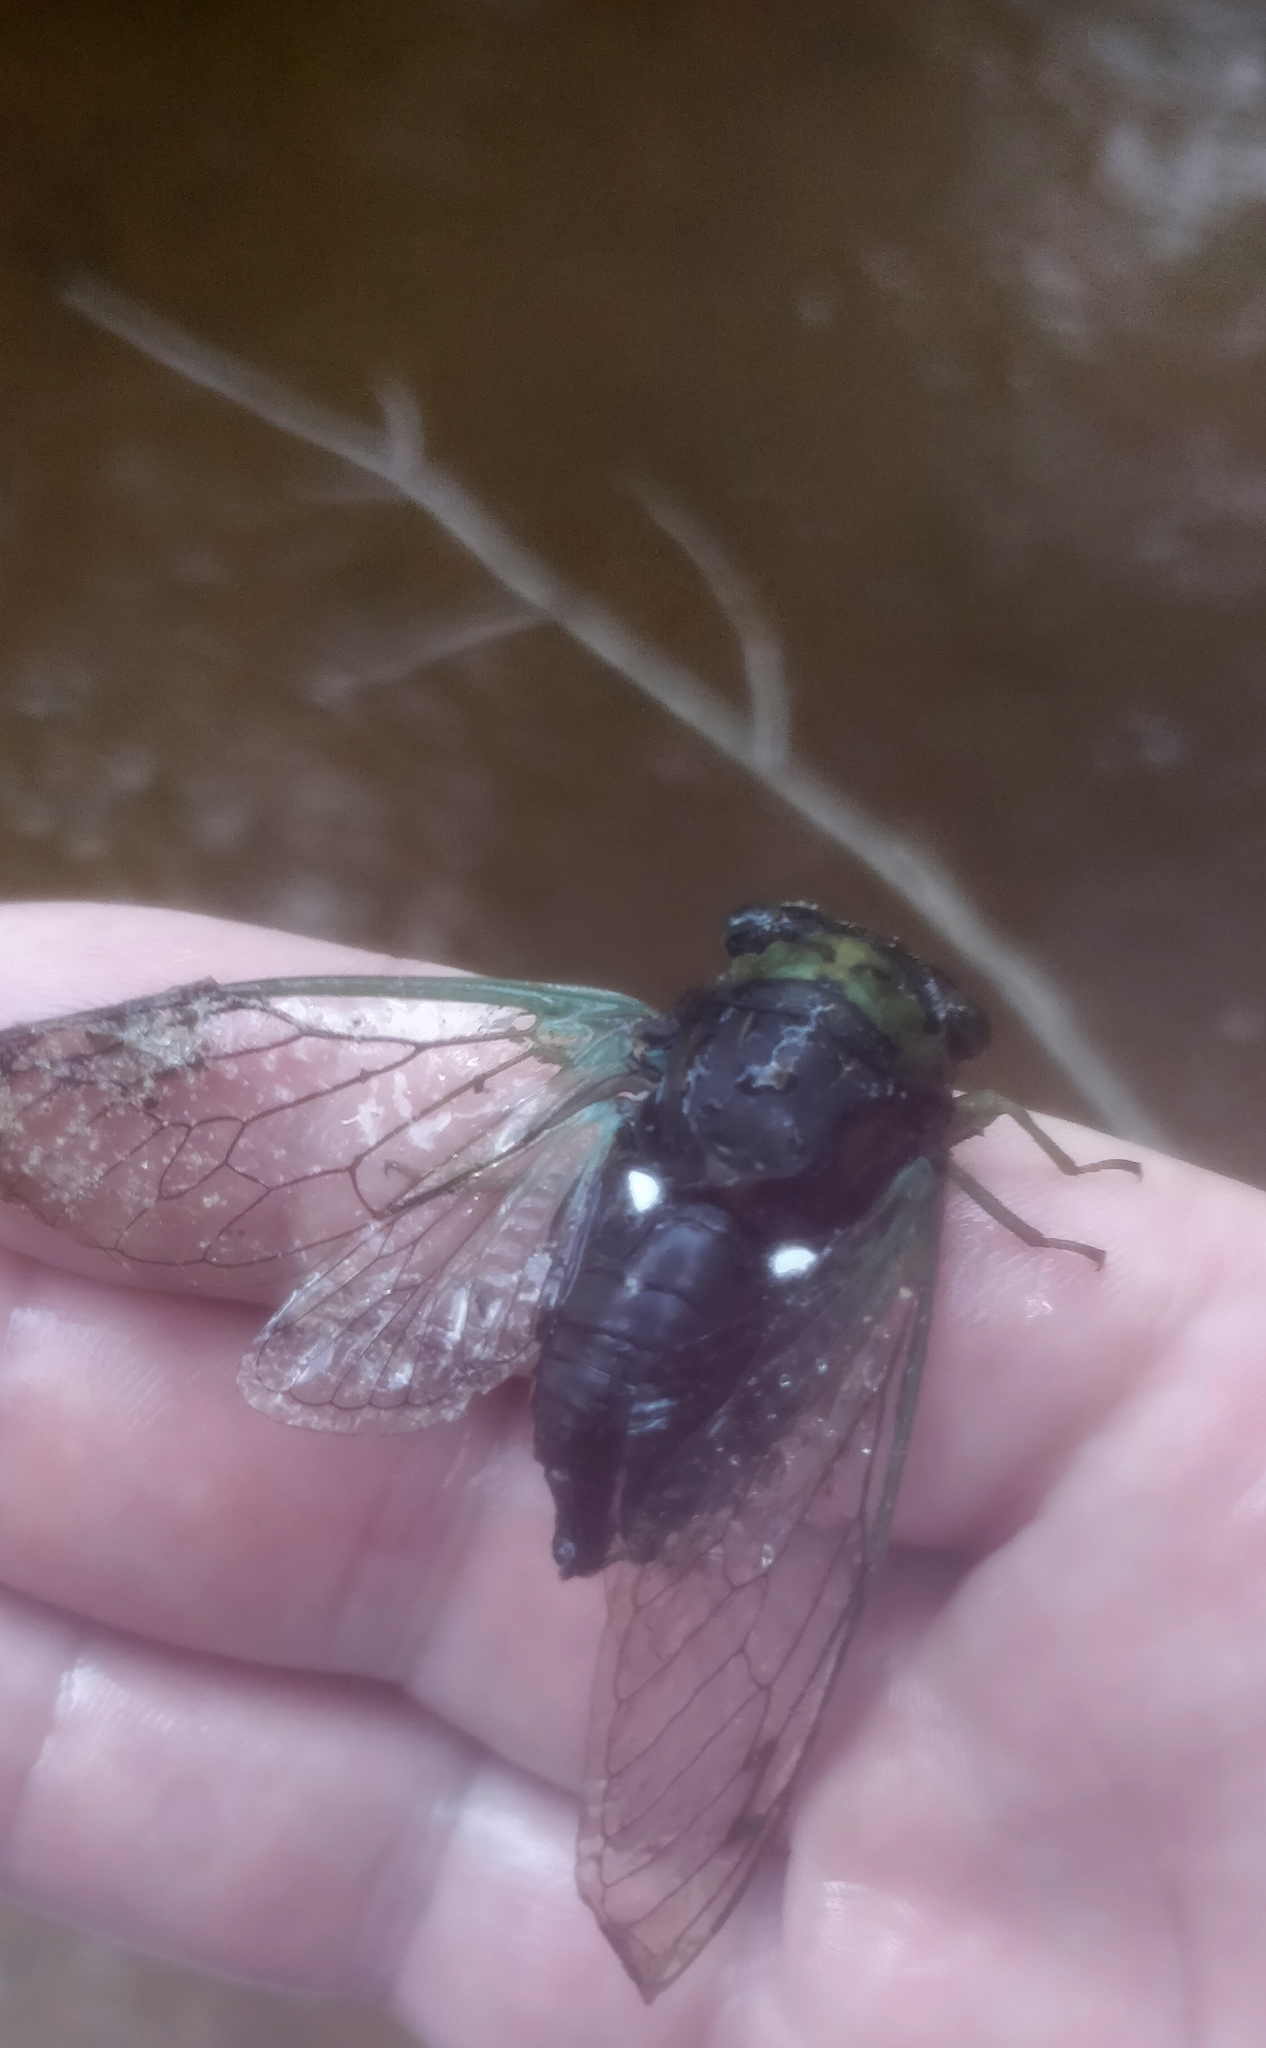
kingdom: Animalia
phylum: Arthropoda
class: Insecta
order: Hemiptera
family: Cicadidae
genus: Neotibicen
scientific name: Neotibicen tibicen
